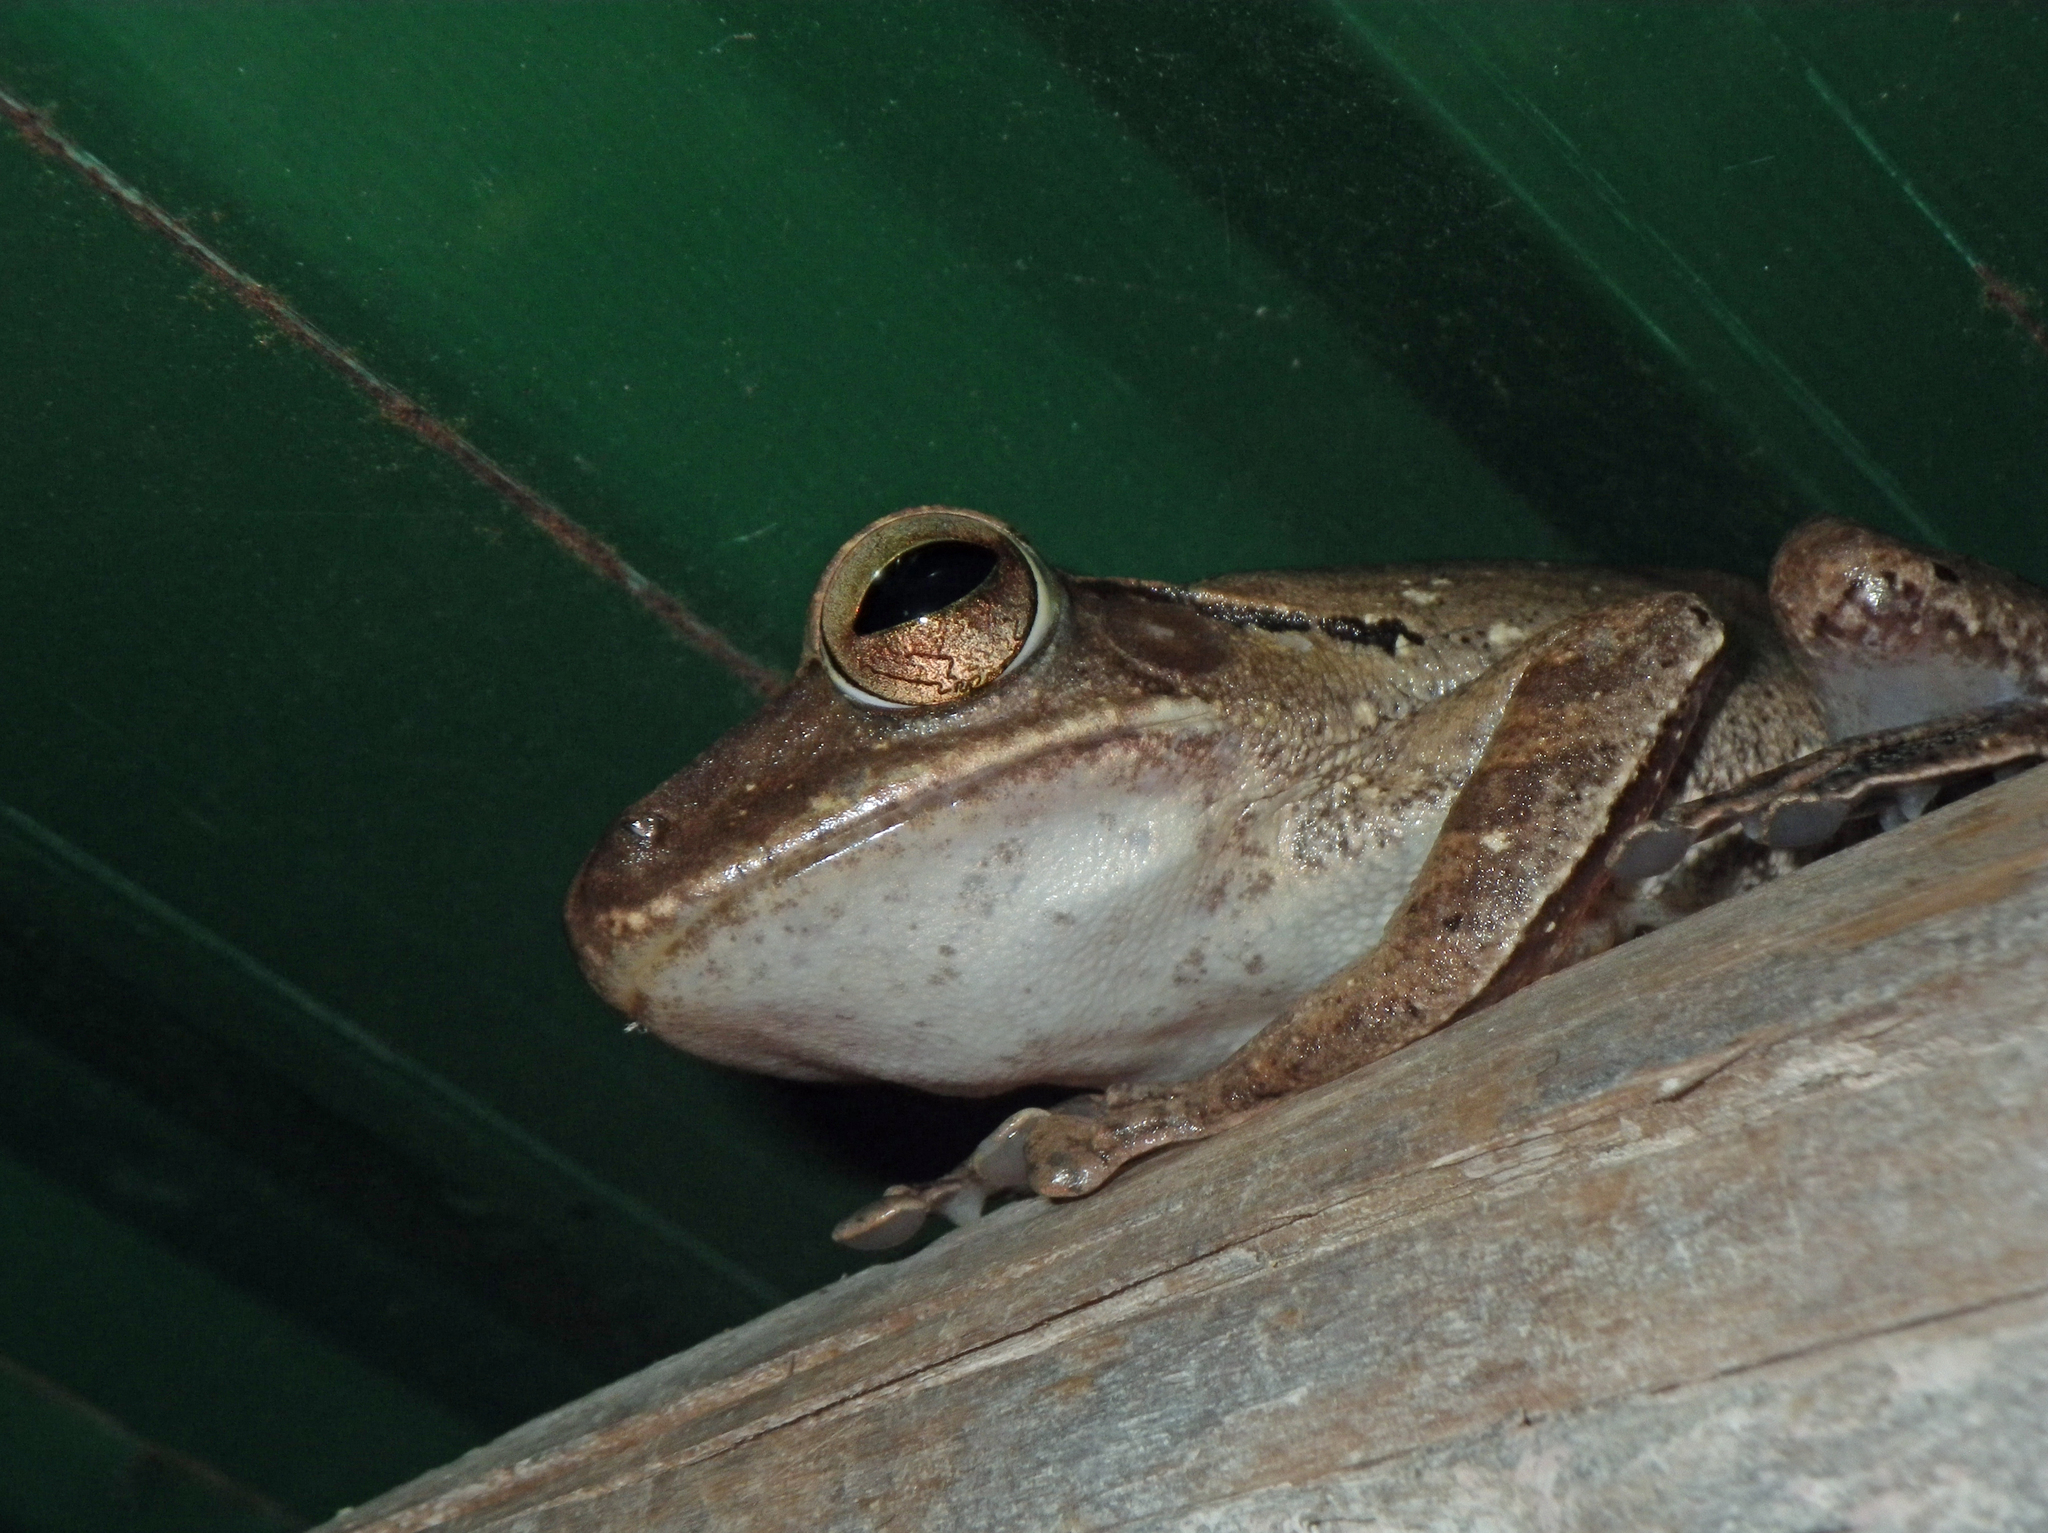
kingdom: Animalia
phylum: Chordata
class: Amphibia
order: Anura
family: Rhacophoridae
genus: Polypedates
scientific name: Polypedates megacephalus
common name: Hong kong whipping frog
